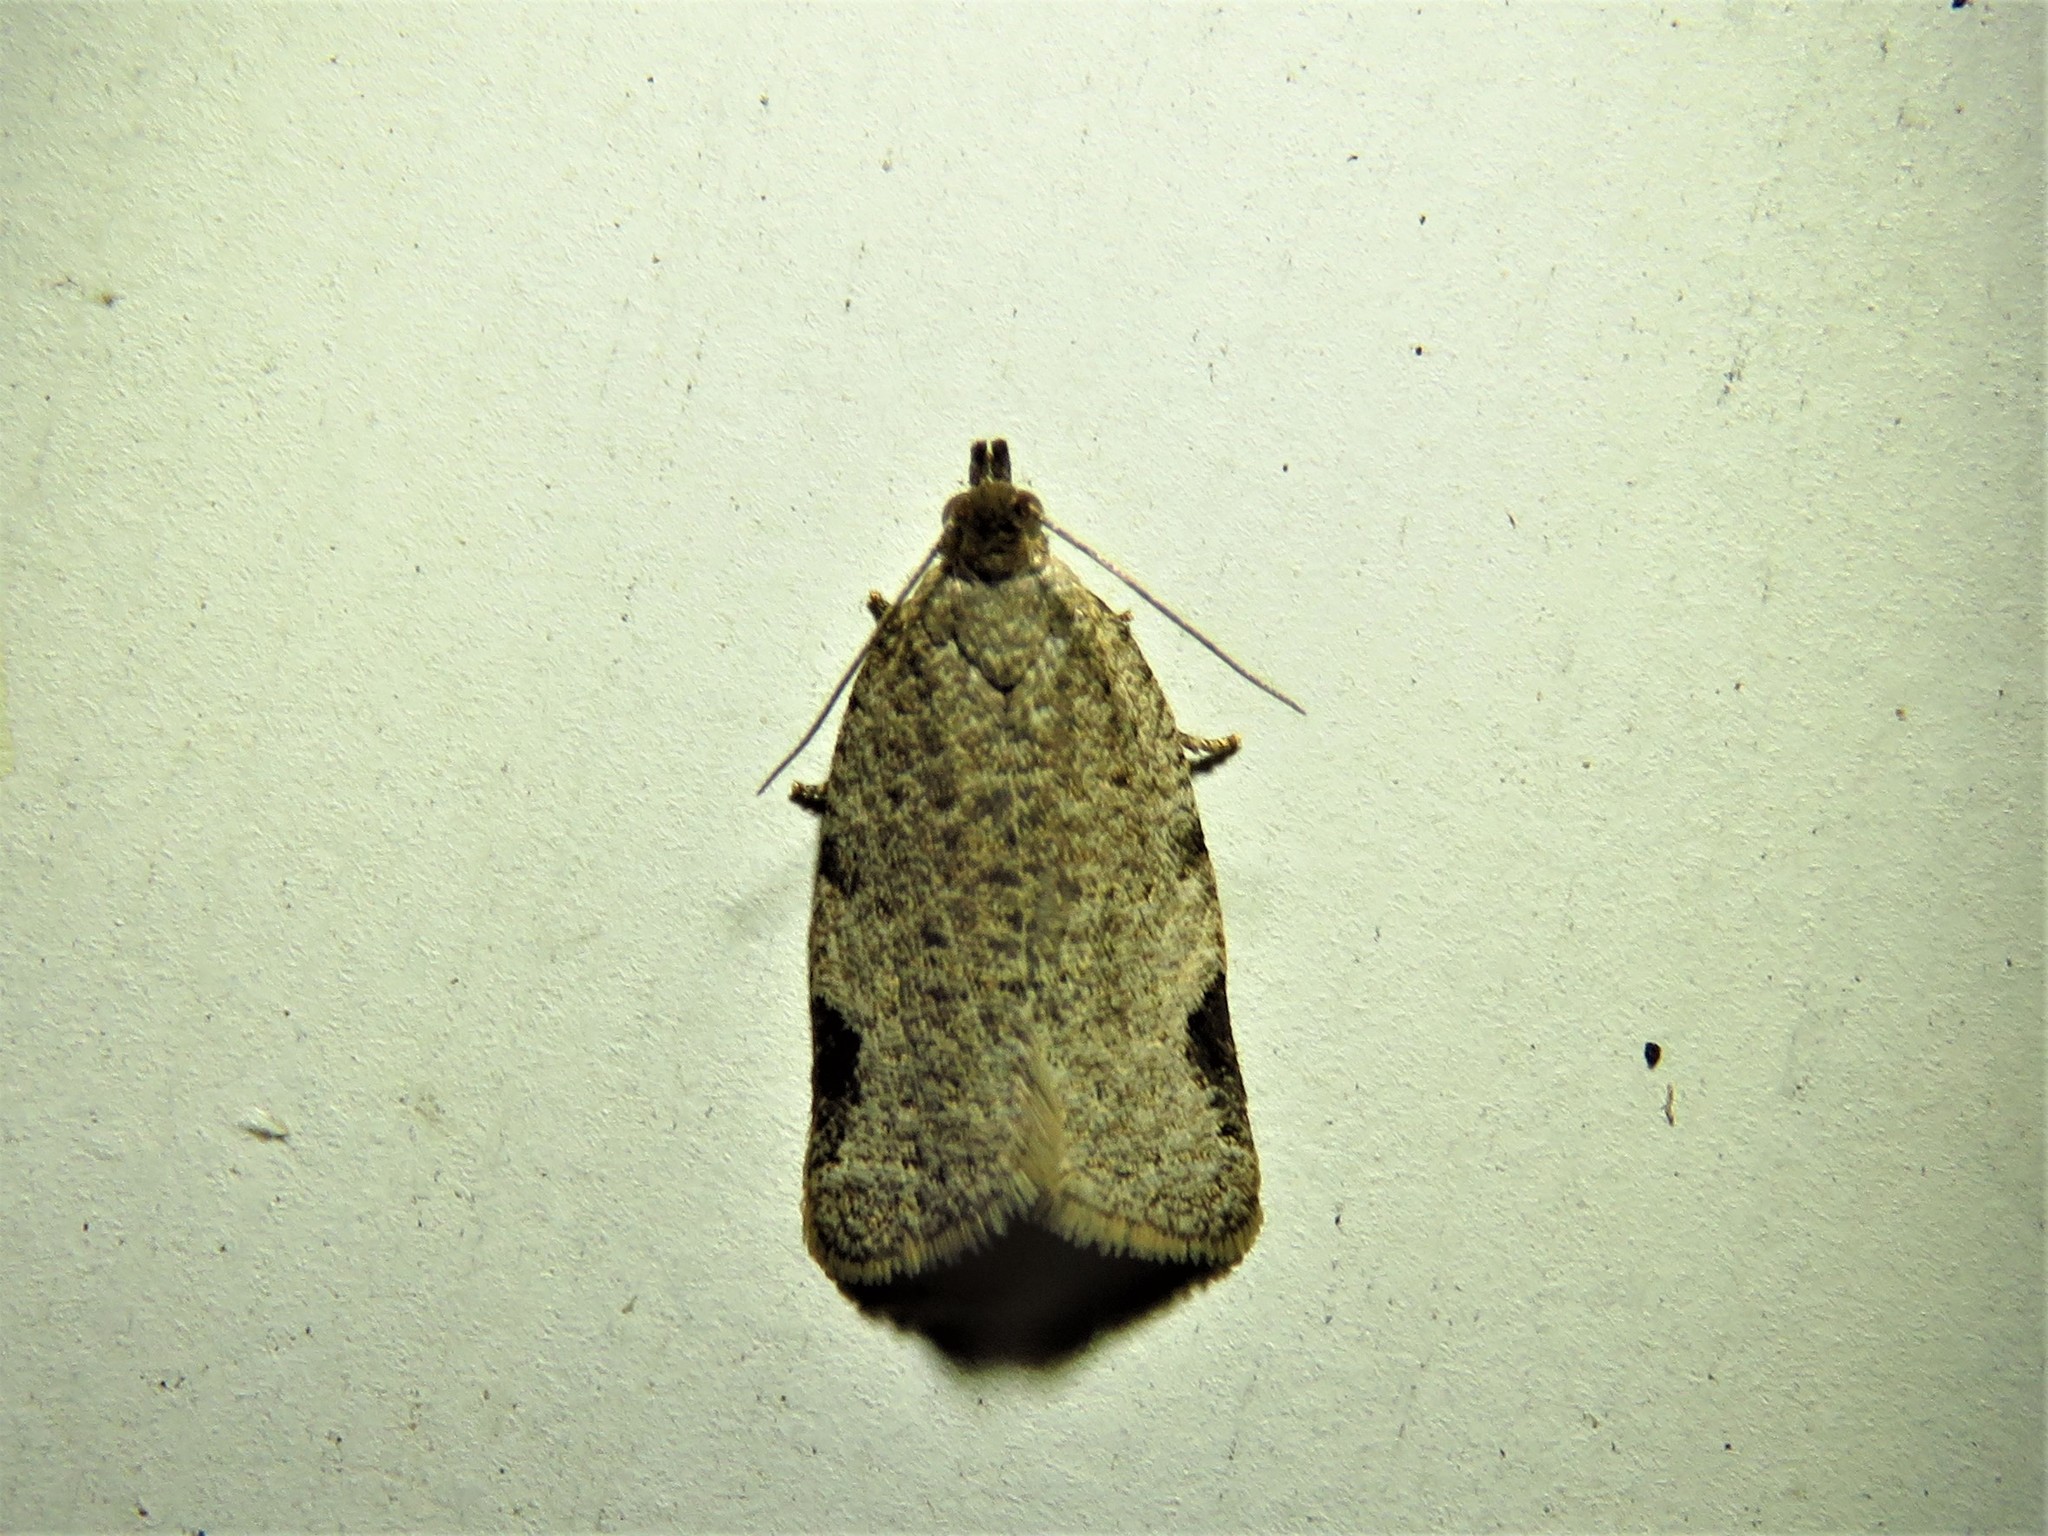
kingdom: Animalia
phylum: Arthropoda
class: Insecta
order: Lepidoptera
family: Tortricidae
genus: Clepsis
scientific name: Clepsis virescana
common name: Greenish apple moth
